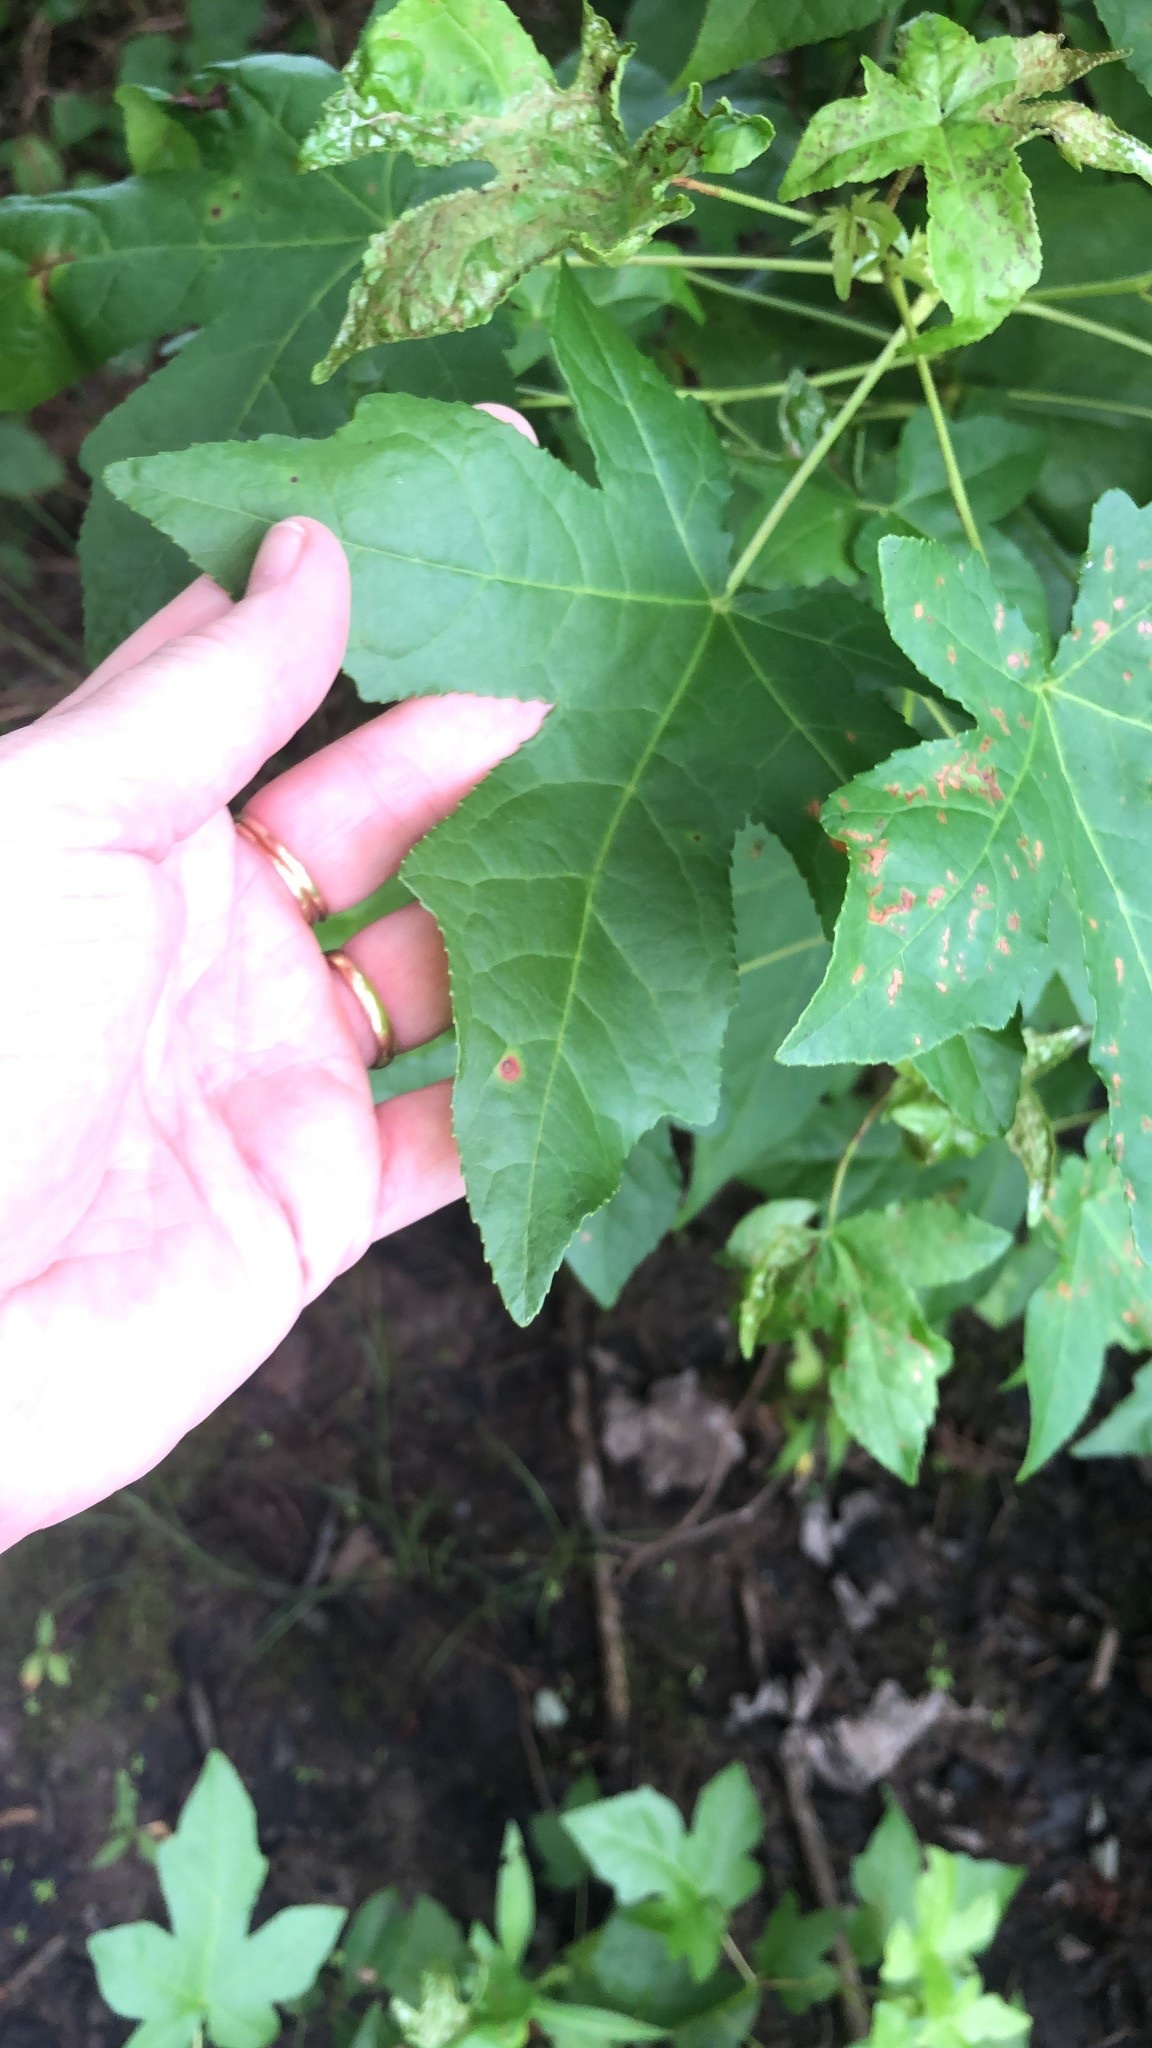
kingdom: Plantae
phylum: Tracheophyta
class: Magnoliopsida
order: Saxifragales
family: Altingiaceae
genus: Liquidambar
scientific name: Liquidambar styraciflua
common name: Sweet gum
